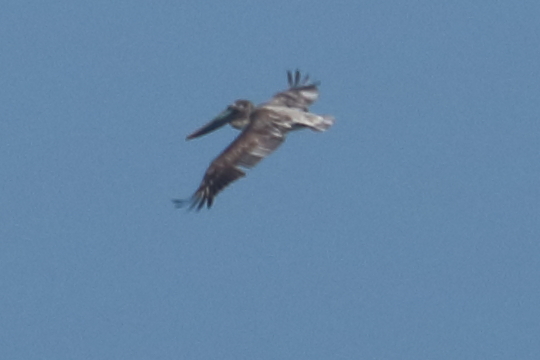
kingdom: Animalia
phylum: Chordata
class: Aves
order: Pelecaniformes
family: Pelecanidae
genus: Pelecanus
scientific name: Pelecanus occidentalis
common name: Brown pelican
